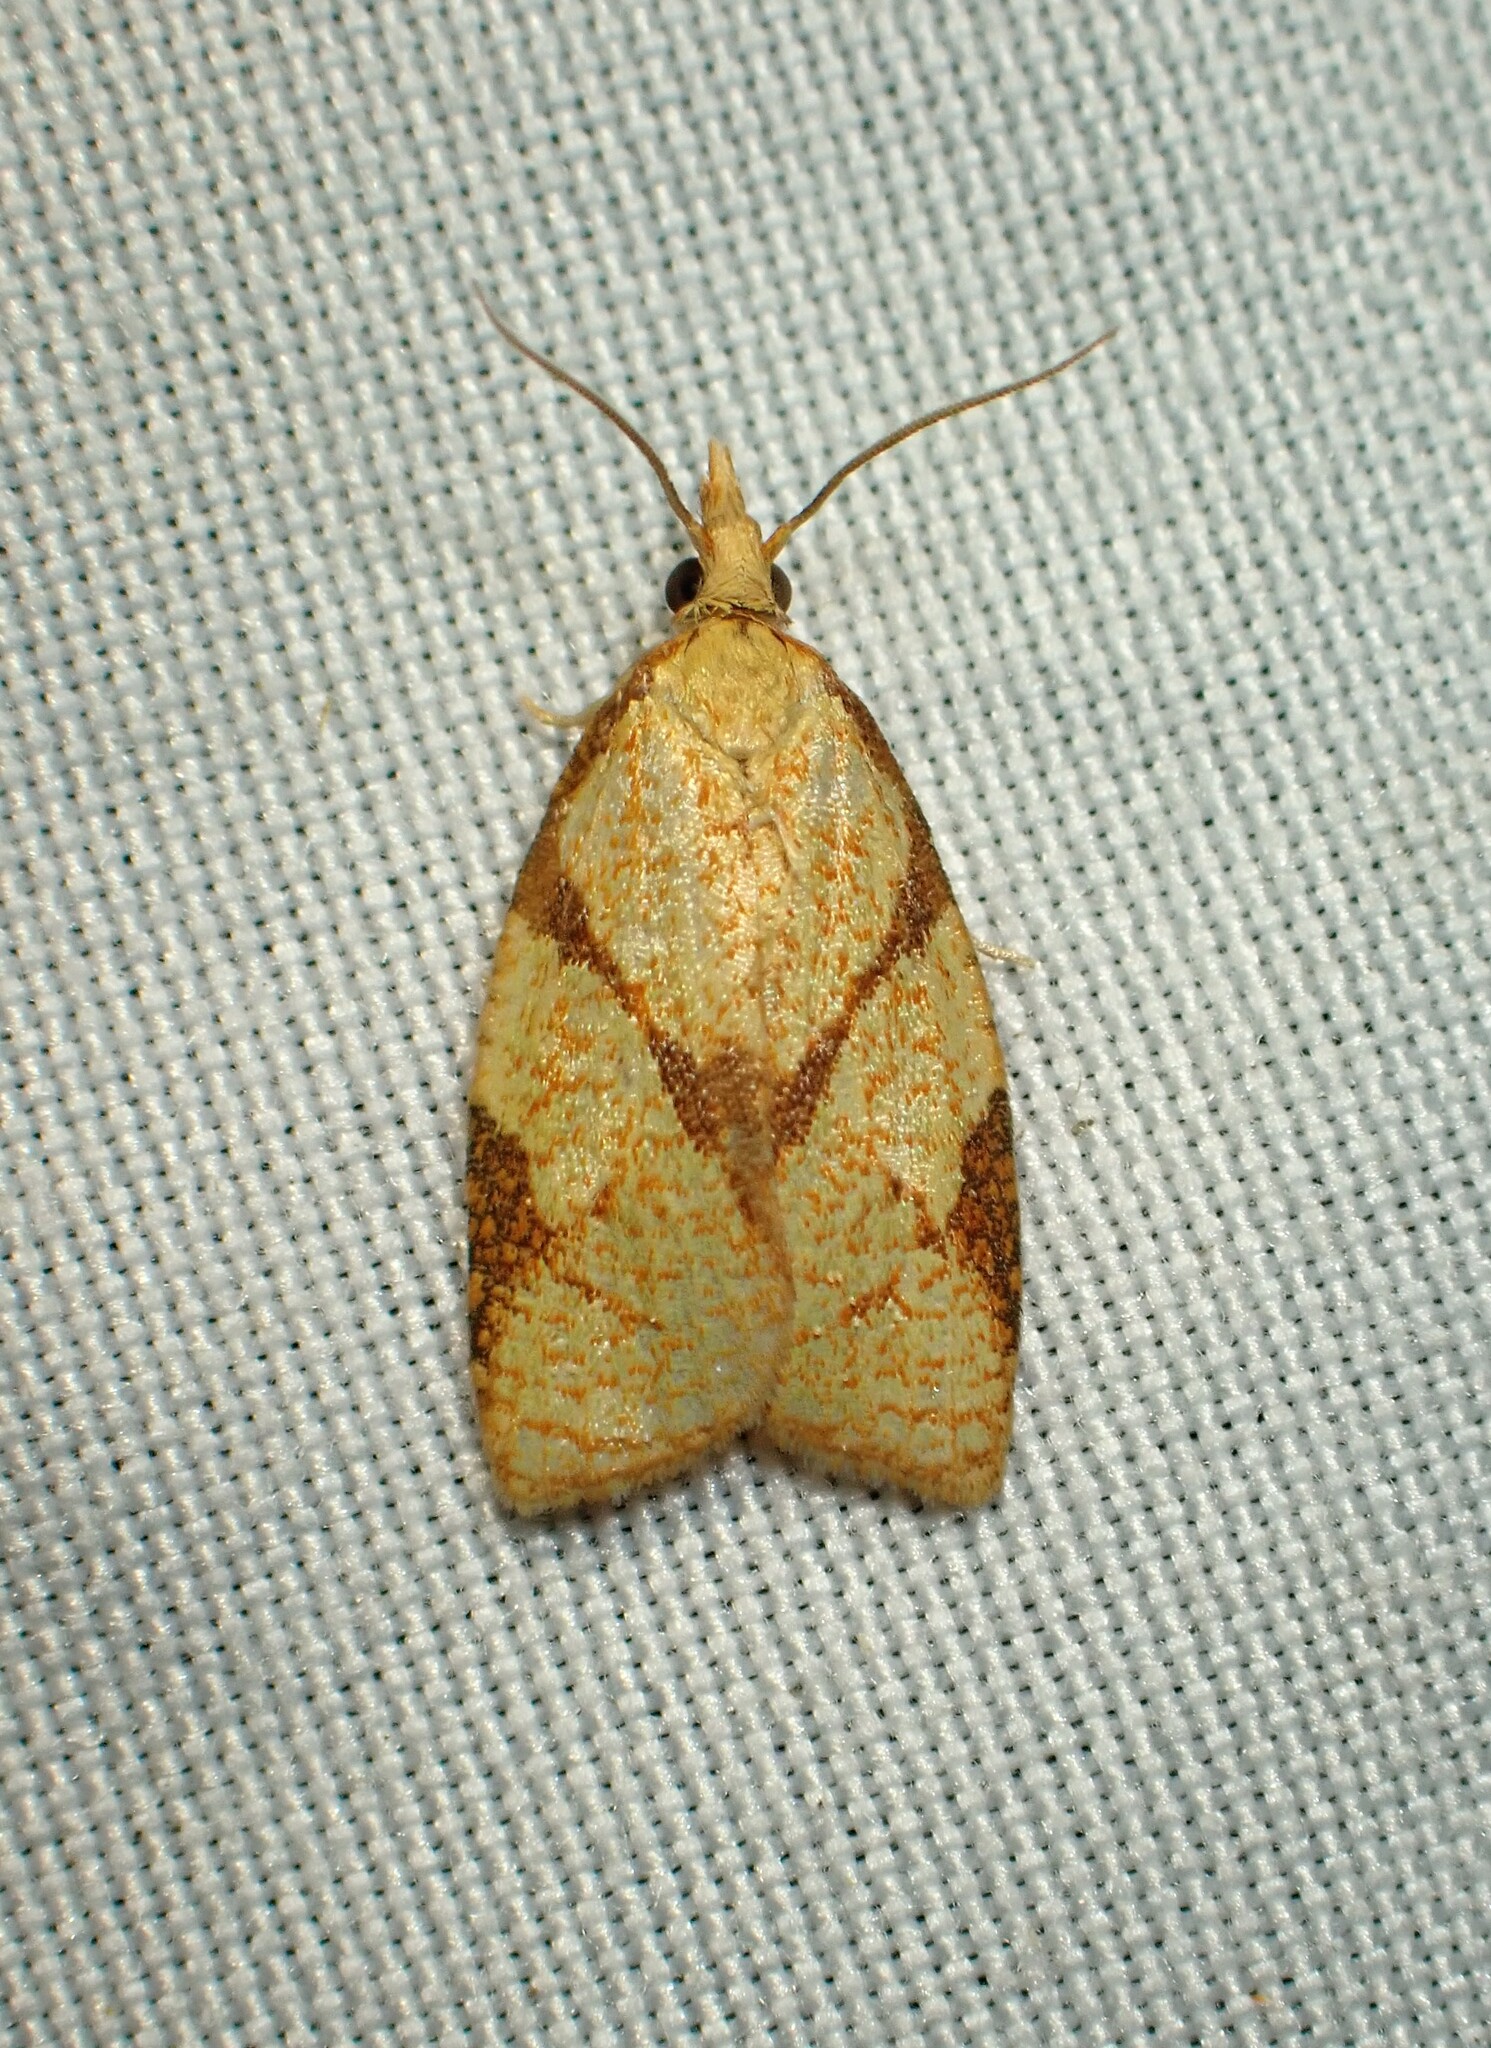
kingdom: Animalia
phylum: Arthropoda
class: Insecta
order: Lepidoptera
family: Tortricidae
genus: Cenopis
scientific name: Cenopis reticulatana
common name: Reticulated fruitworm moth
